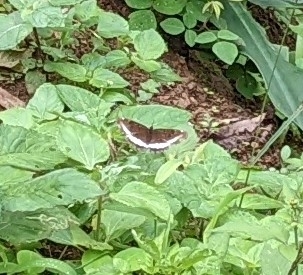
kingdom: Animalia
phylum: Arthropoda
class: Insecta
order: Lepidoptera
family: Nymphalidae
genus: Eurytela
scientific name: Eurytela hiarbas
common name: Pied piper
